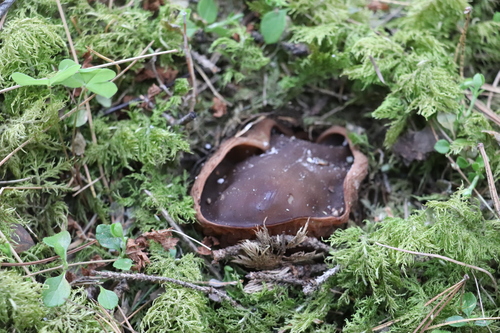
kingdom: Fungi
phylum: Ascomycota
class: Pezizomycetes
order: Pezizales
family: Sarcosomataceae
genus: Sarcosoma
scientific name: Sarcosoma globosum
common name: Charred-pancake cup
